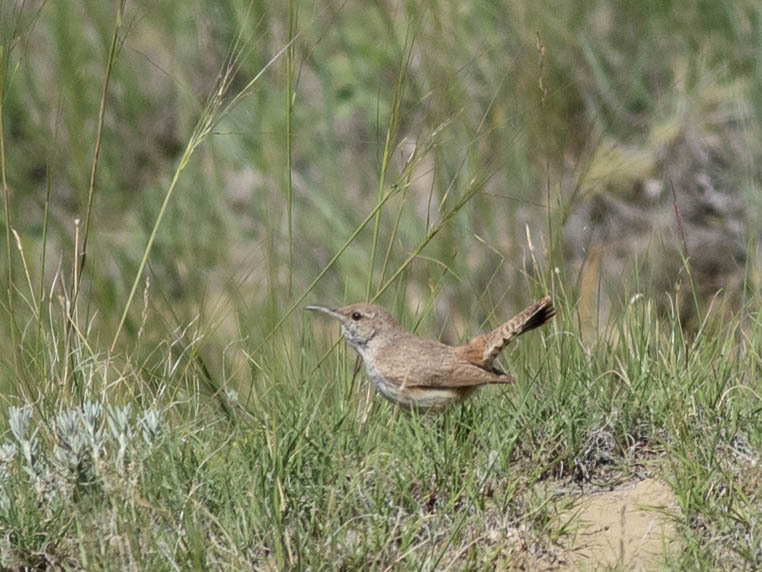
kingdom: Animalia
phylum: Chordata
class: Aves
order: Passeriformes
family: Troglodytidae
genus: Salpinctes
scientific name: Salpinctes obsoletus
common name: Rock wren
